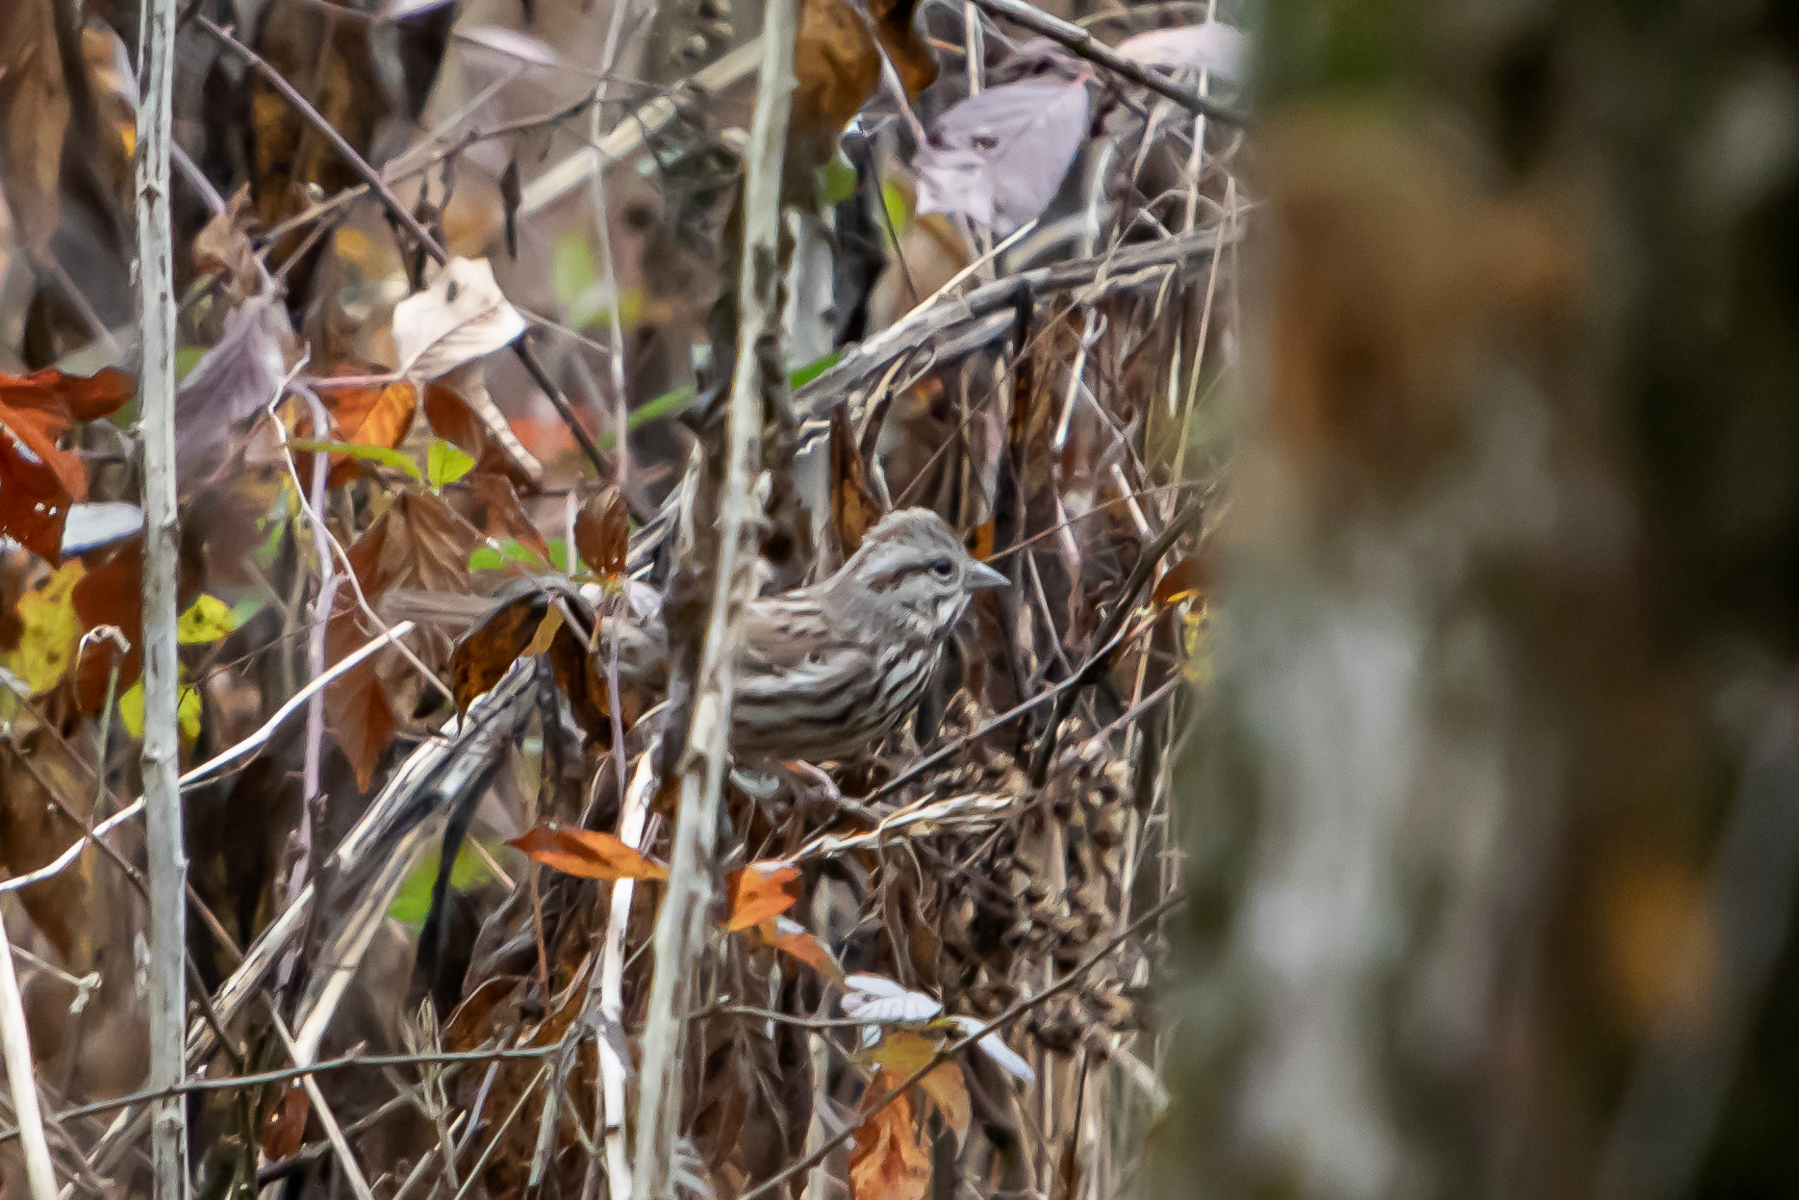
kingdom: Animalia
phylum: Chordata
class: Aves
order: Passeriformes
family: Passerellidae
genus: Melospiza
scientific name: Melospiza melodia
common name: Song sparrow
